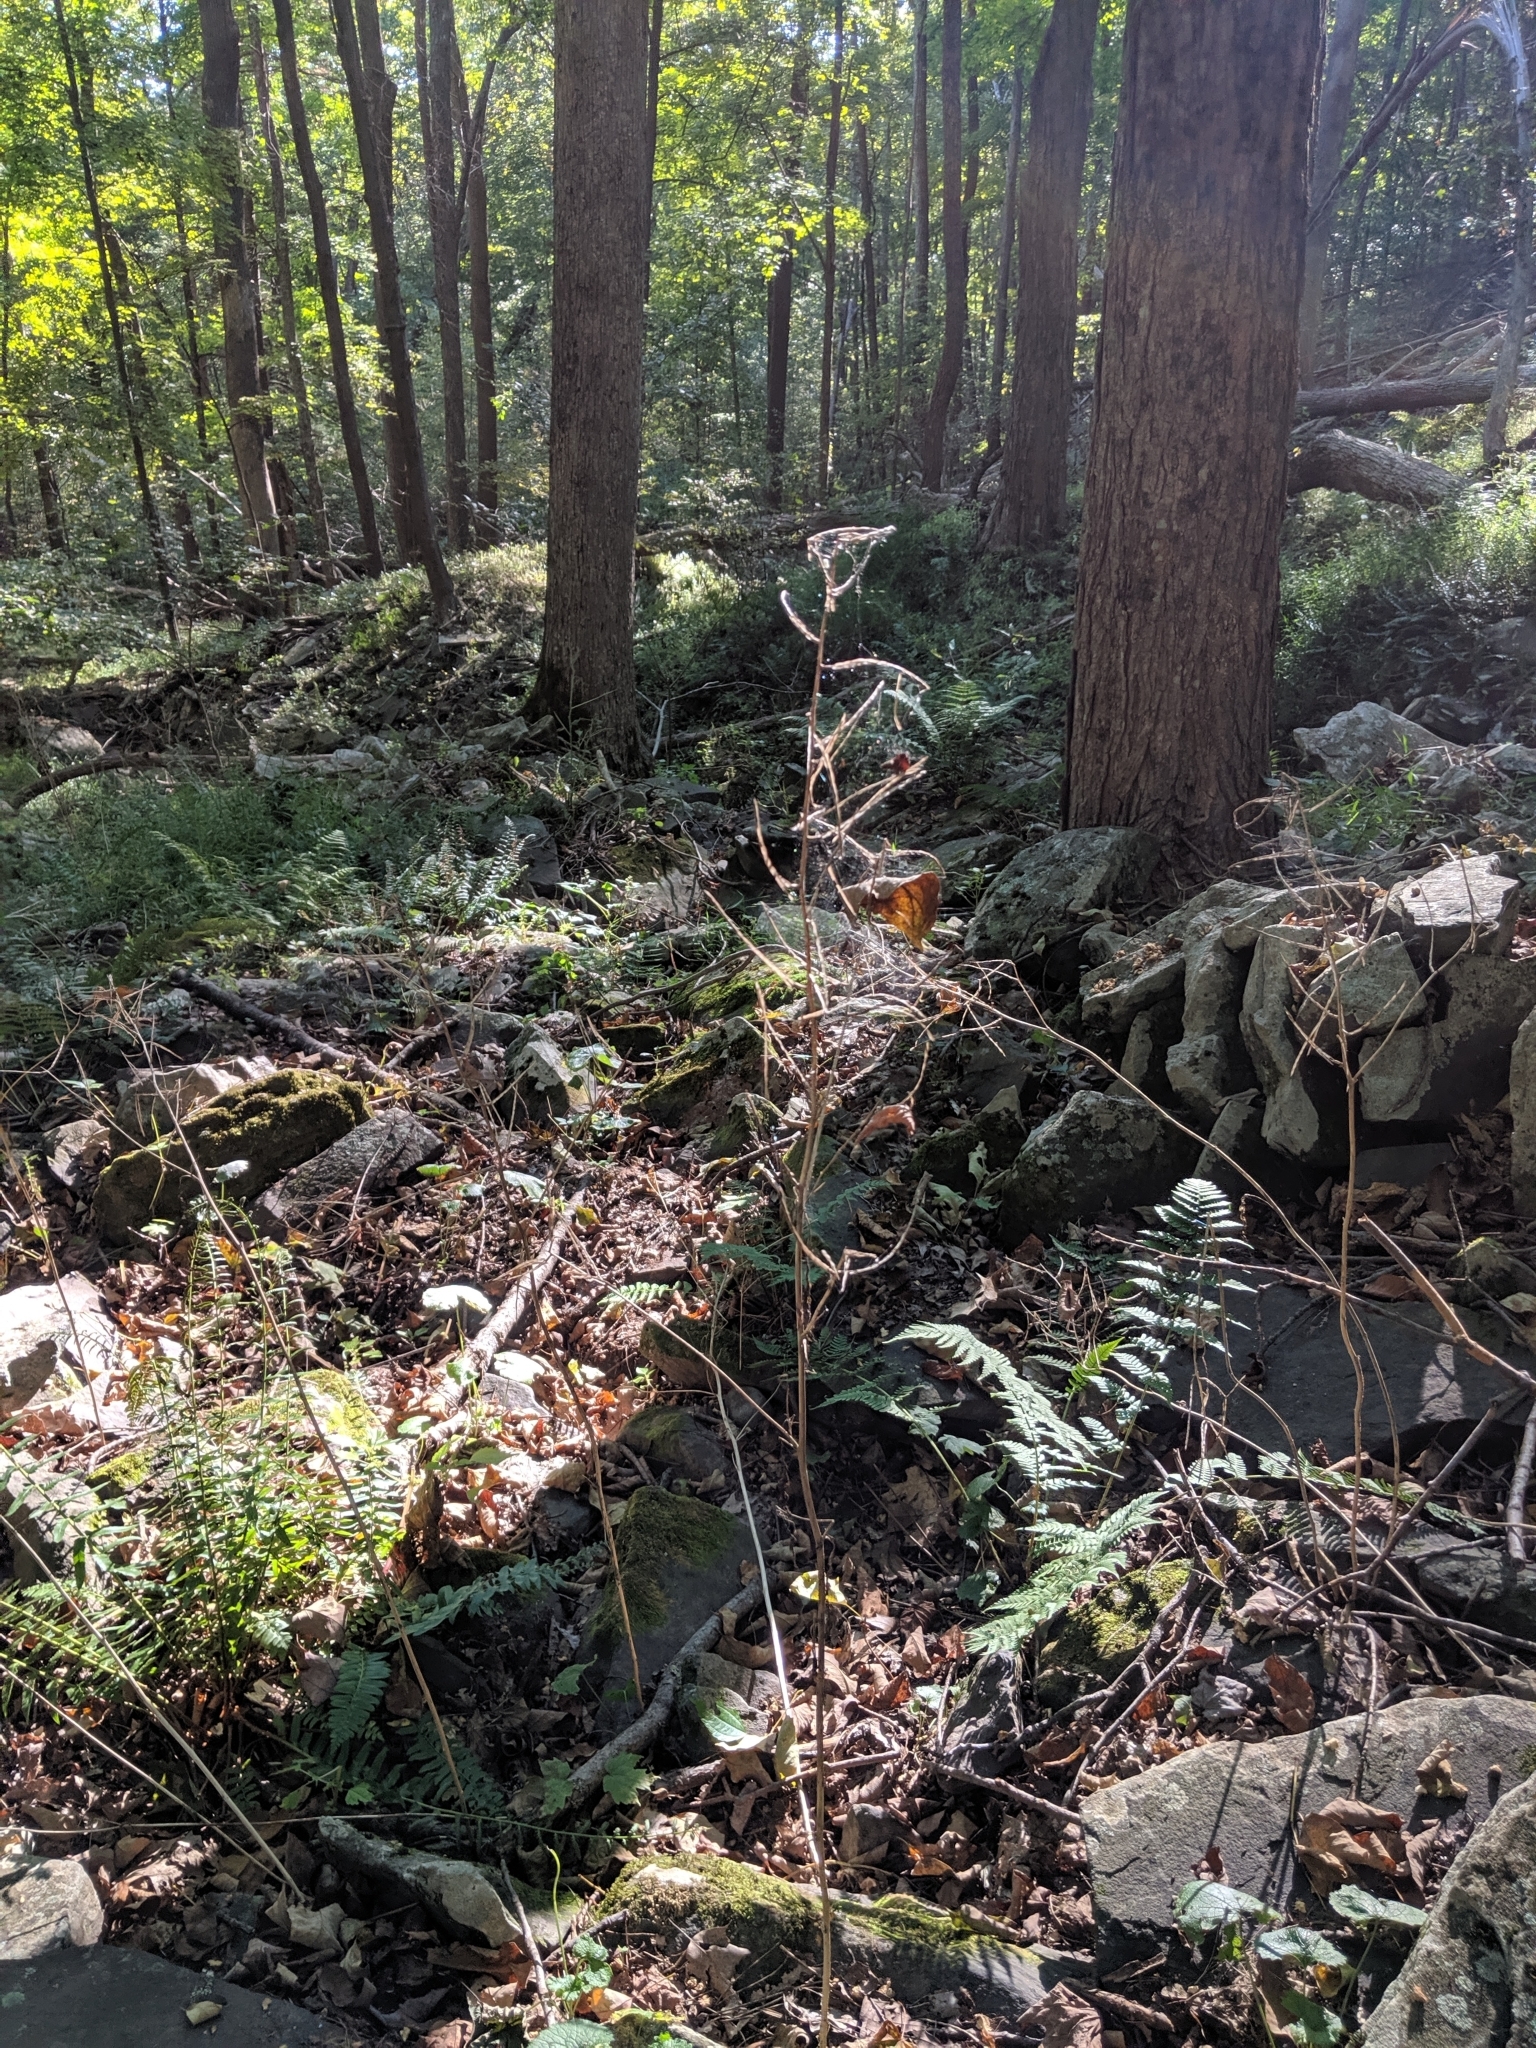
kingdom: Plantae
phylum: Tracheophyta
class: Magnoliopsida
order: Brassicales
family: Brassicaceae
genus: Alliaria
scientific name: Alliaria petiolata
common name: Garlic mustard
